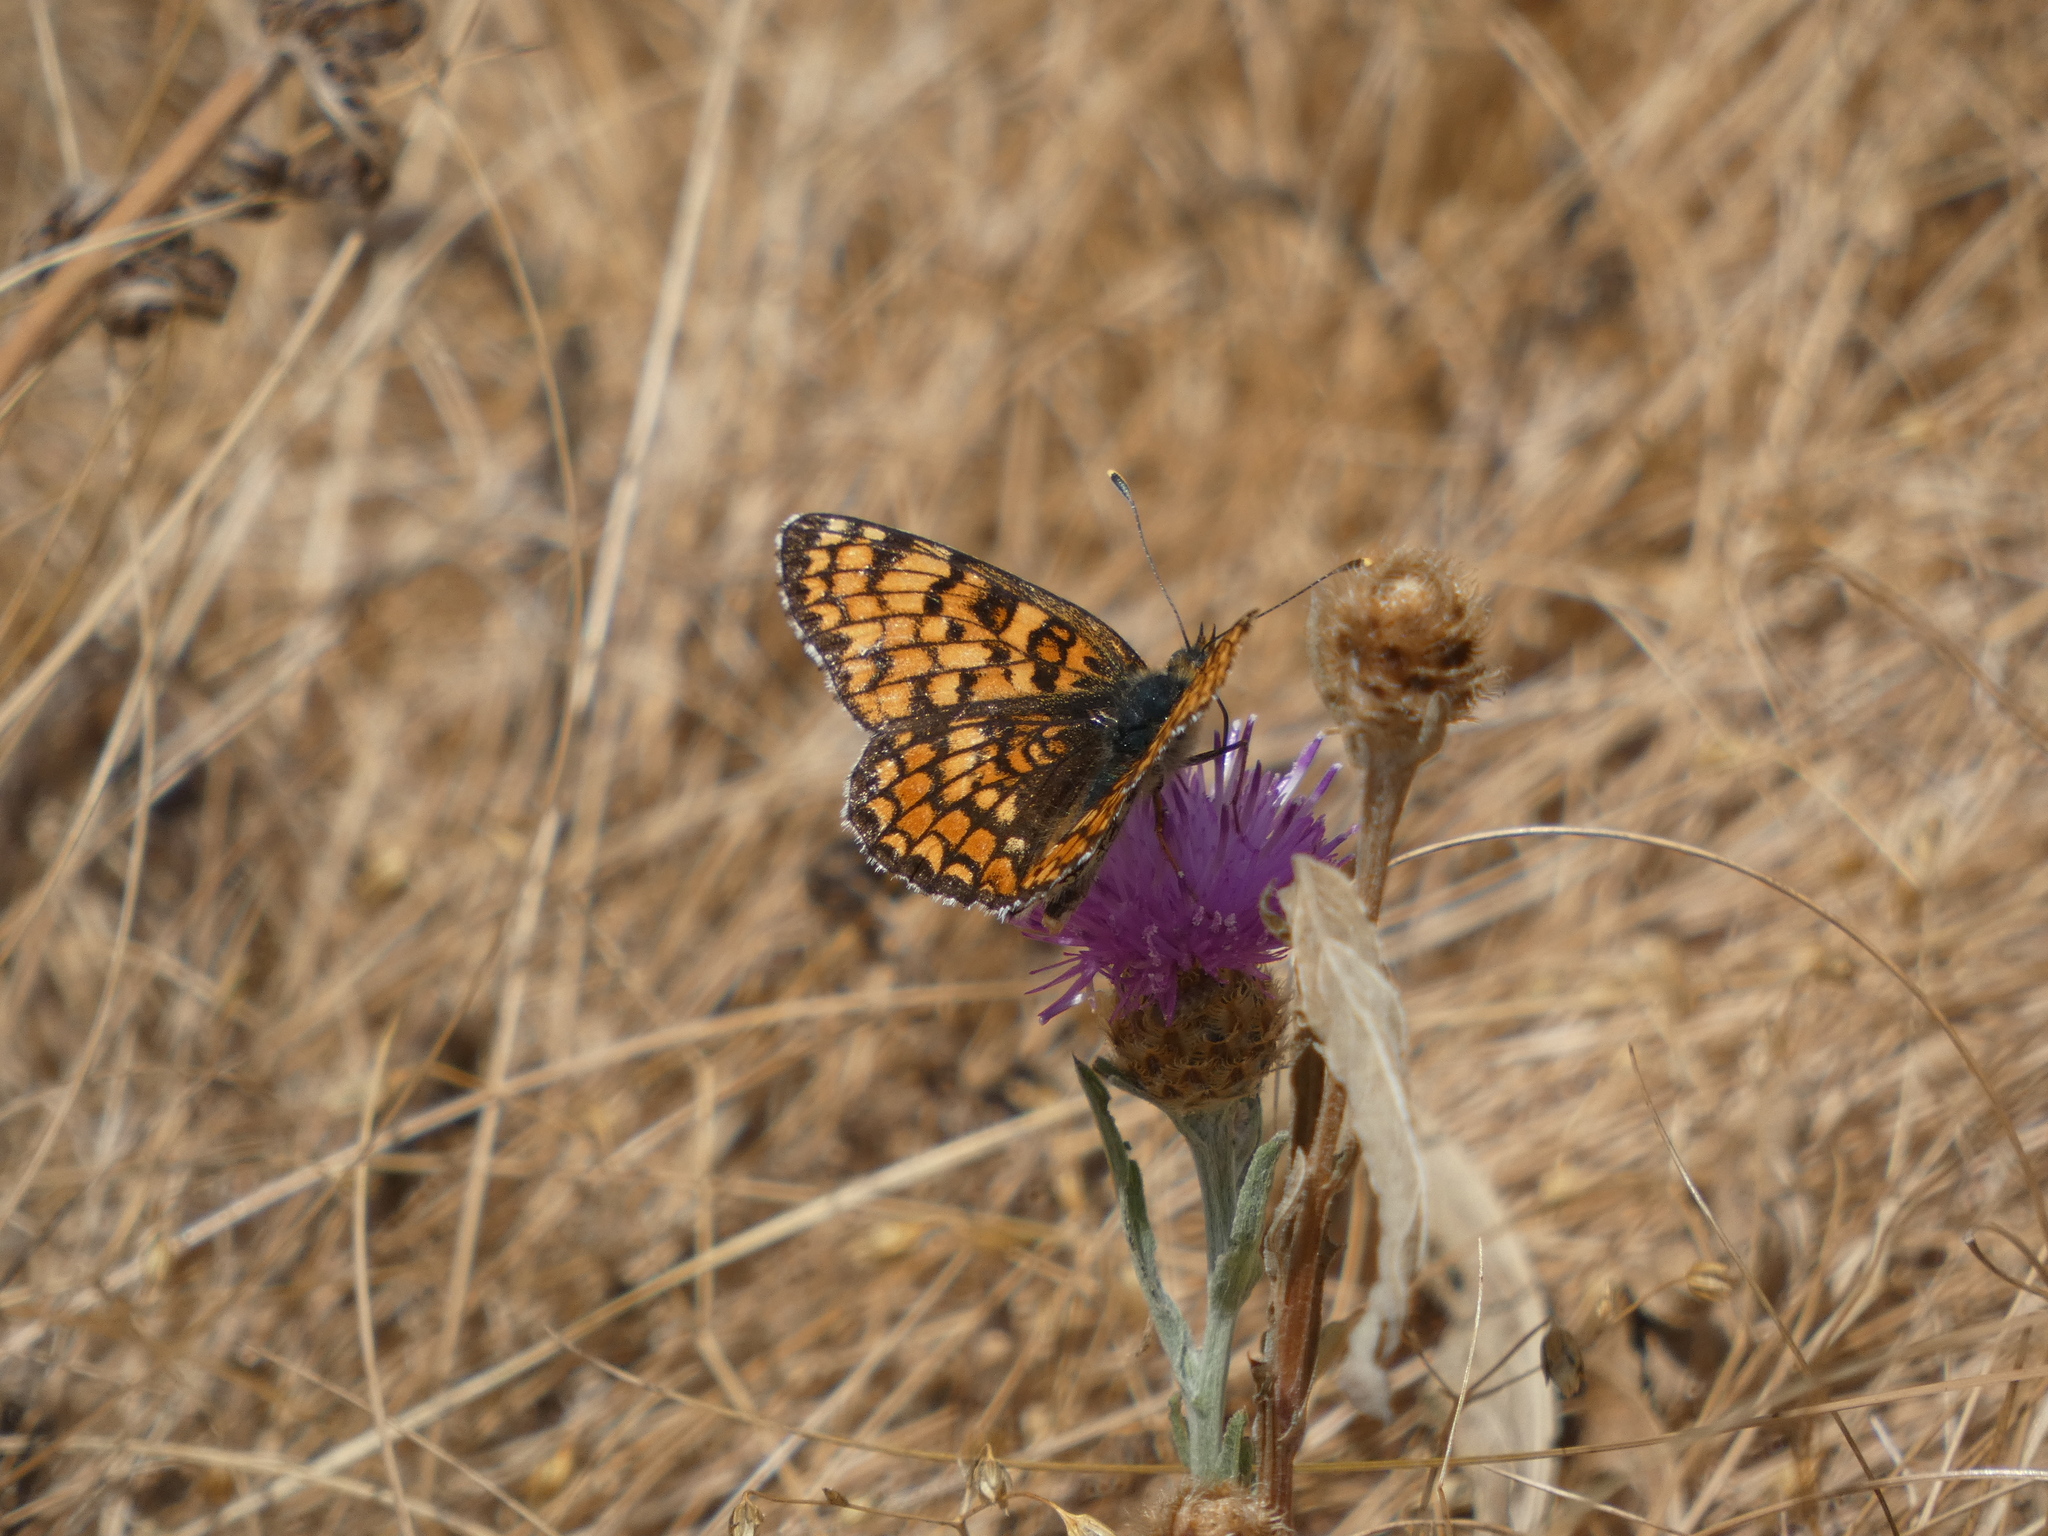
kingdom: Animalia
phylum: Arthropoda
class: Insecta
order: Lepidoptera
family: Nymphalidae
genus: Melitaea
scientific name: Melitaea phoebe
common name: Knapweed fritillary
